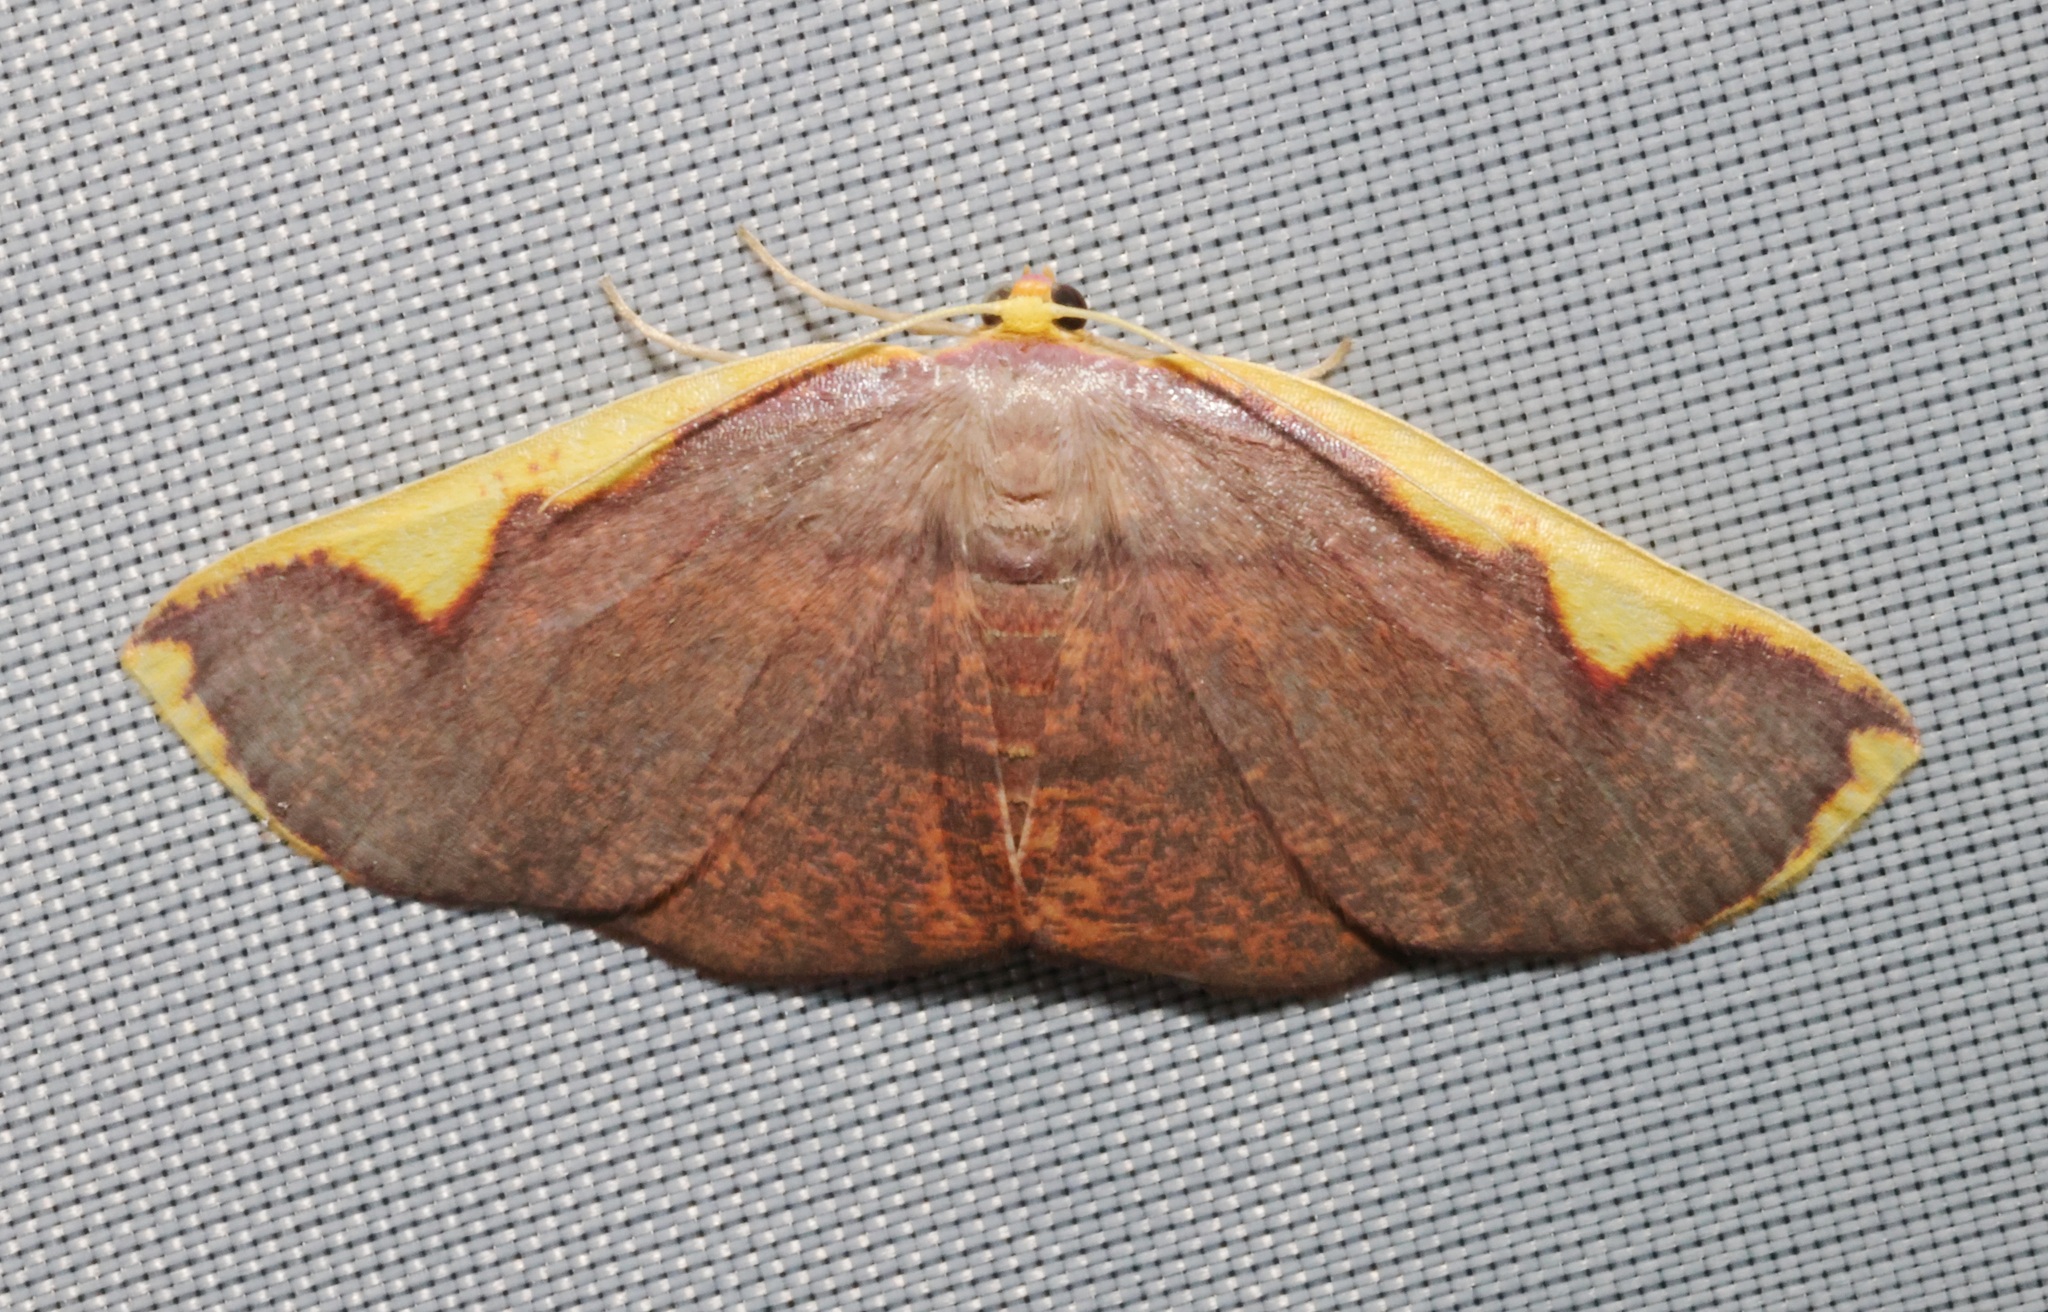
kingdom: Animalia
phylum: Arthropoda
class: Insecta
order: Lepidoptera
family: Geometridae
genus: Nothomiza
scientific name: Nothomiza flavicosta
